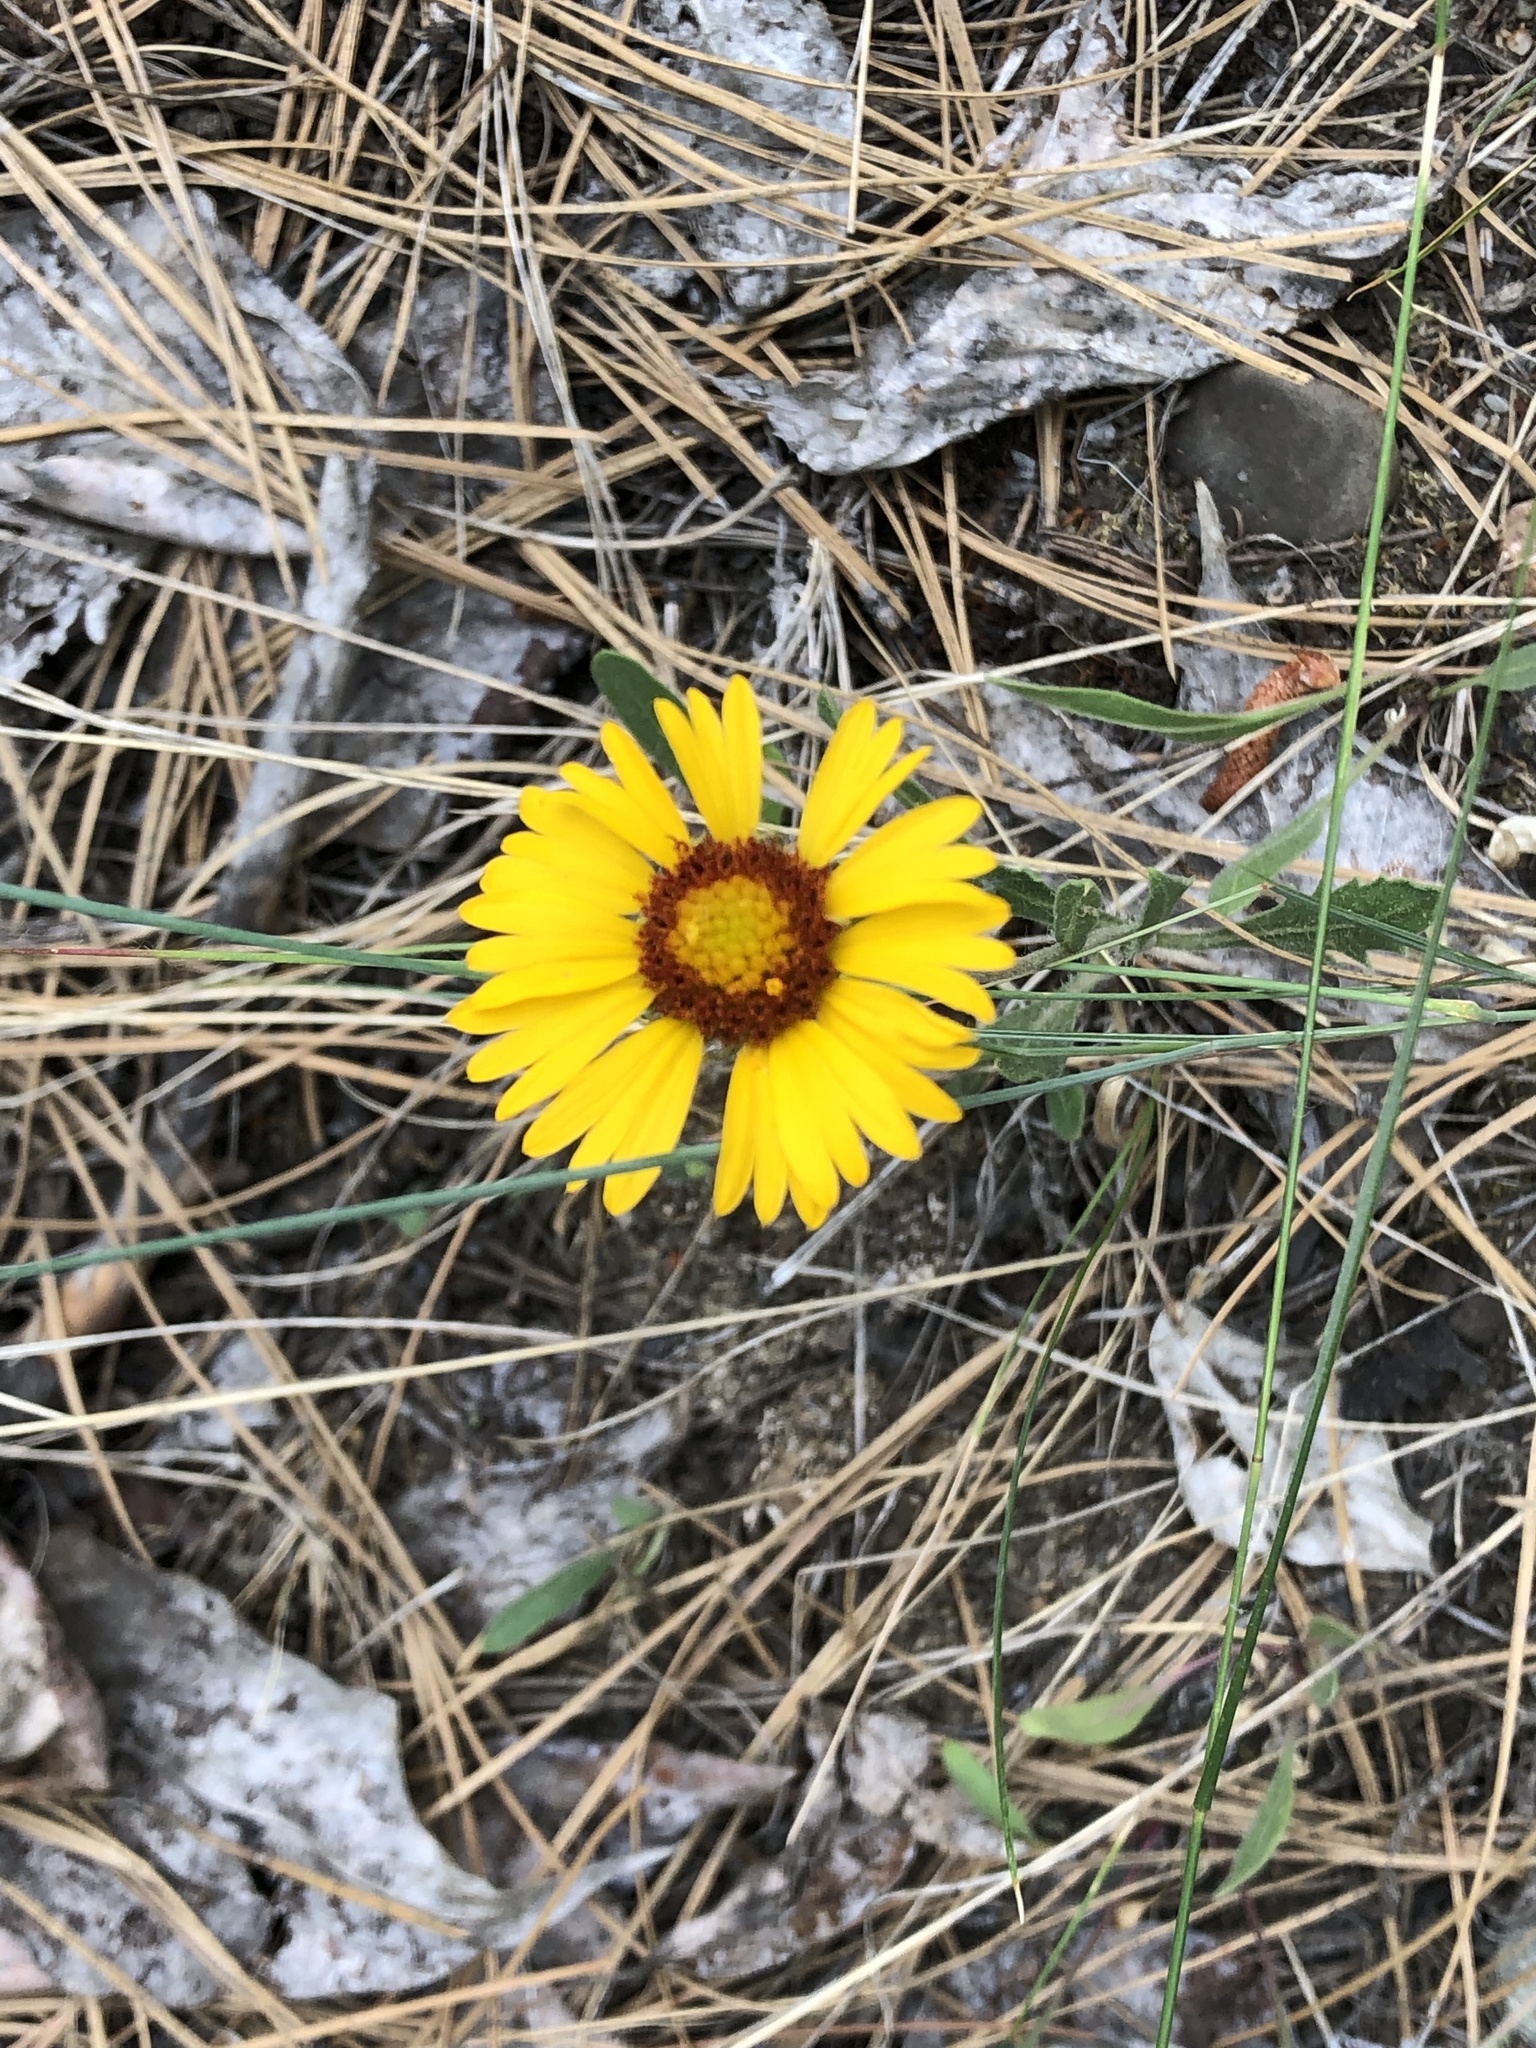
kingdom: Plantae
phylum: Tracheophyta
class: Magnoliopsida
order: Asterales
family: Asteraceae
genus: Gaillardia
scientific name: Gaillardia aristata
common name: Blanket-flower
